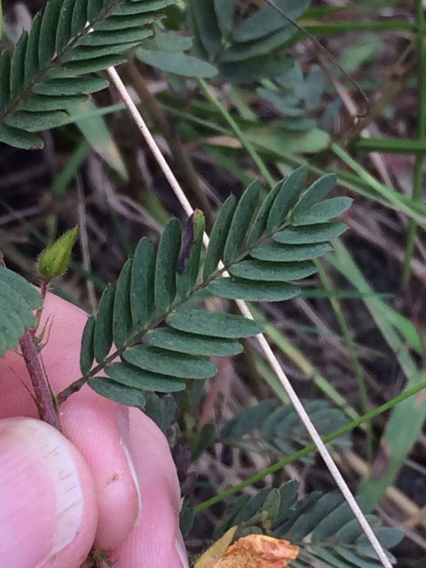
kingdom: Plantae
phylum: Tracheophyta
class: Magnoliopsida
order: Fabales
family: Fabaceae
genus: Chamaecrista
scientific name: Chamaecrista fasciculata
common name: Golden cassia
